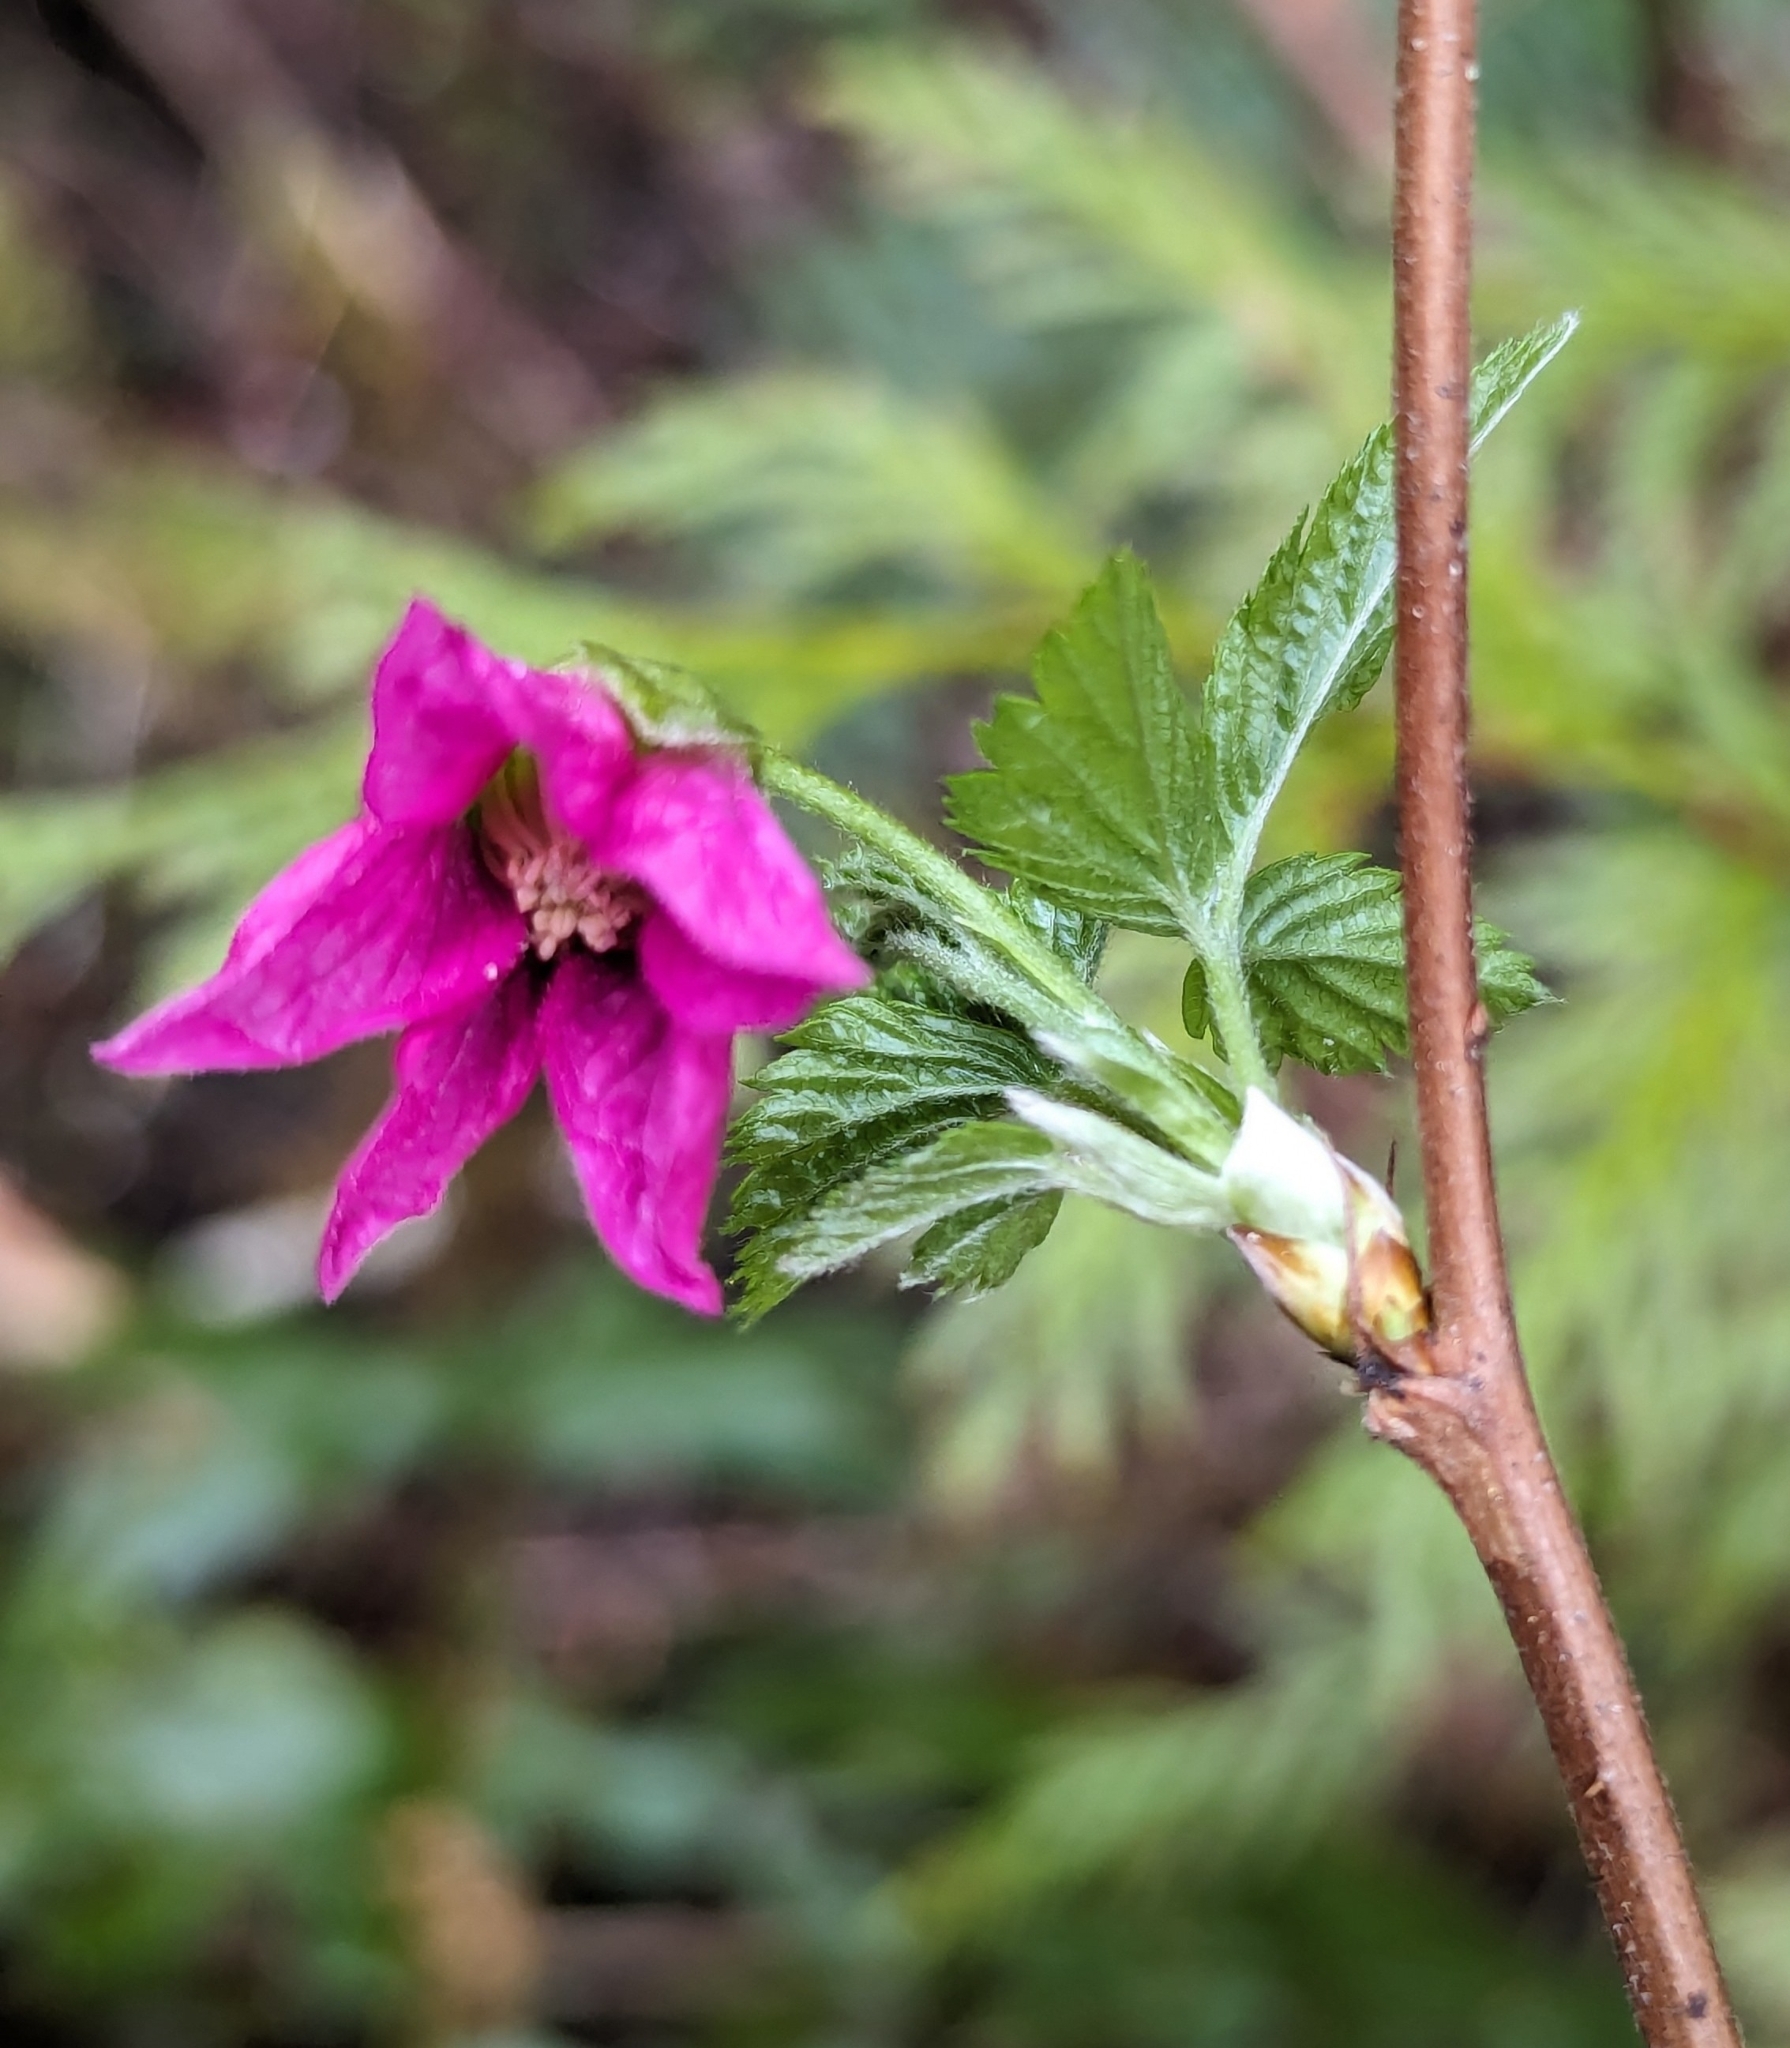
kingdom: Plantae
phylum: Tracheophyta
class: Magnoliopsida
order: Rosales
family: Rosaceae
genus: Rubus
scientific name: Rubus spectabilis
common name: Salmonberry
